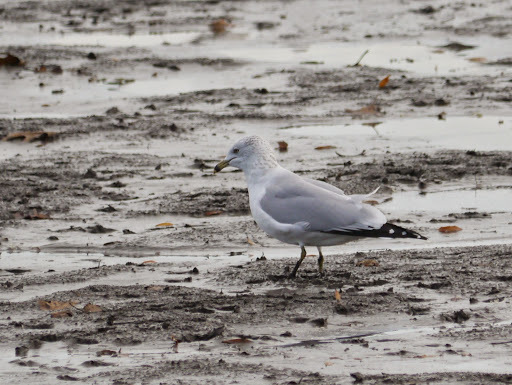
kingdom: Animalia
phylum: Chordata
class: Aves
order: Charadriiformes
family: Laridae
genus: Larus
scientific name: Larus delawarensis
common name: Ring-billed gull
